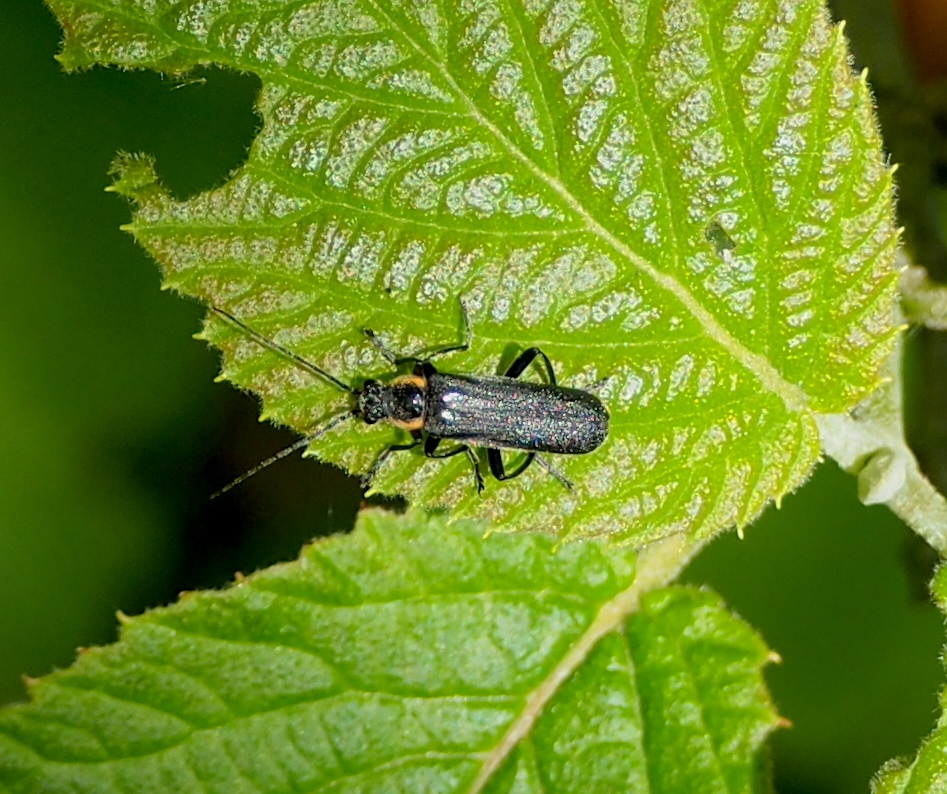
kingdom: Animalia
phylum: Arthropoda
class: Insecta
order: Coleoptera
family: Cantharidae
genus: Cantharis
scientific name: Cantharis
